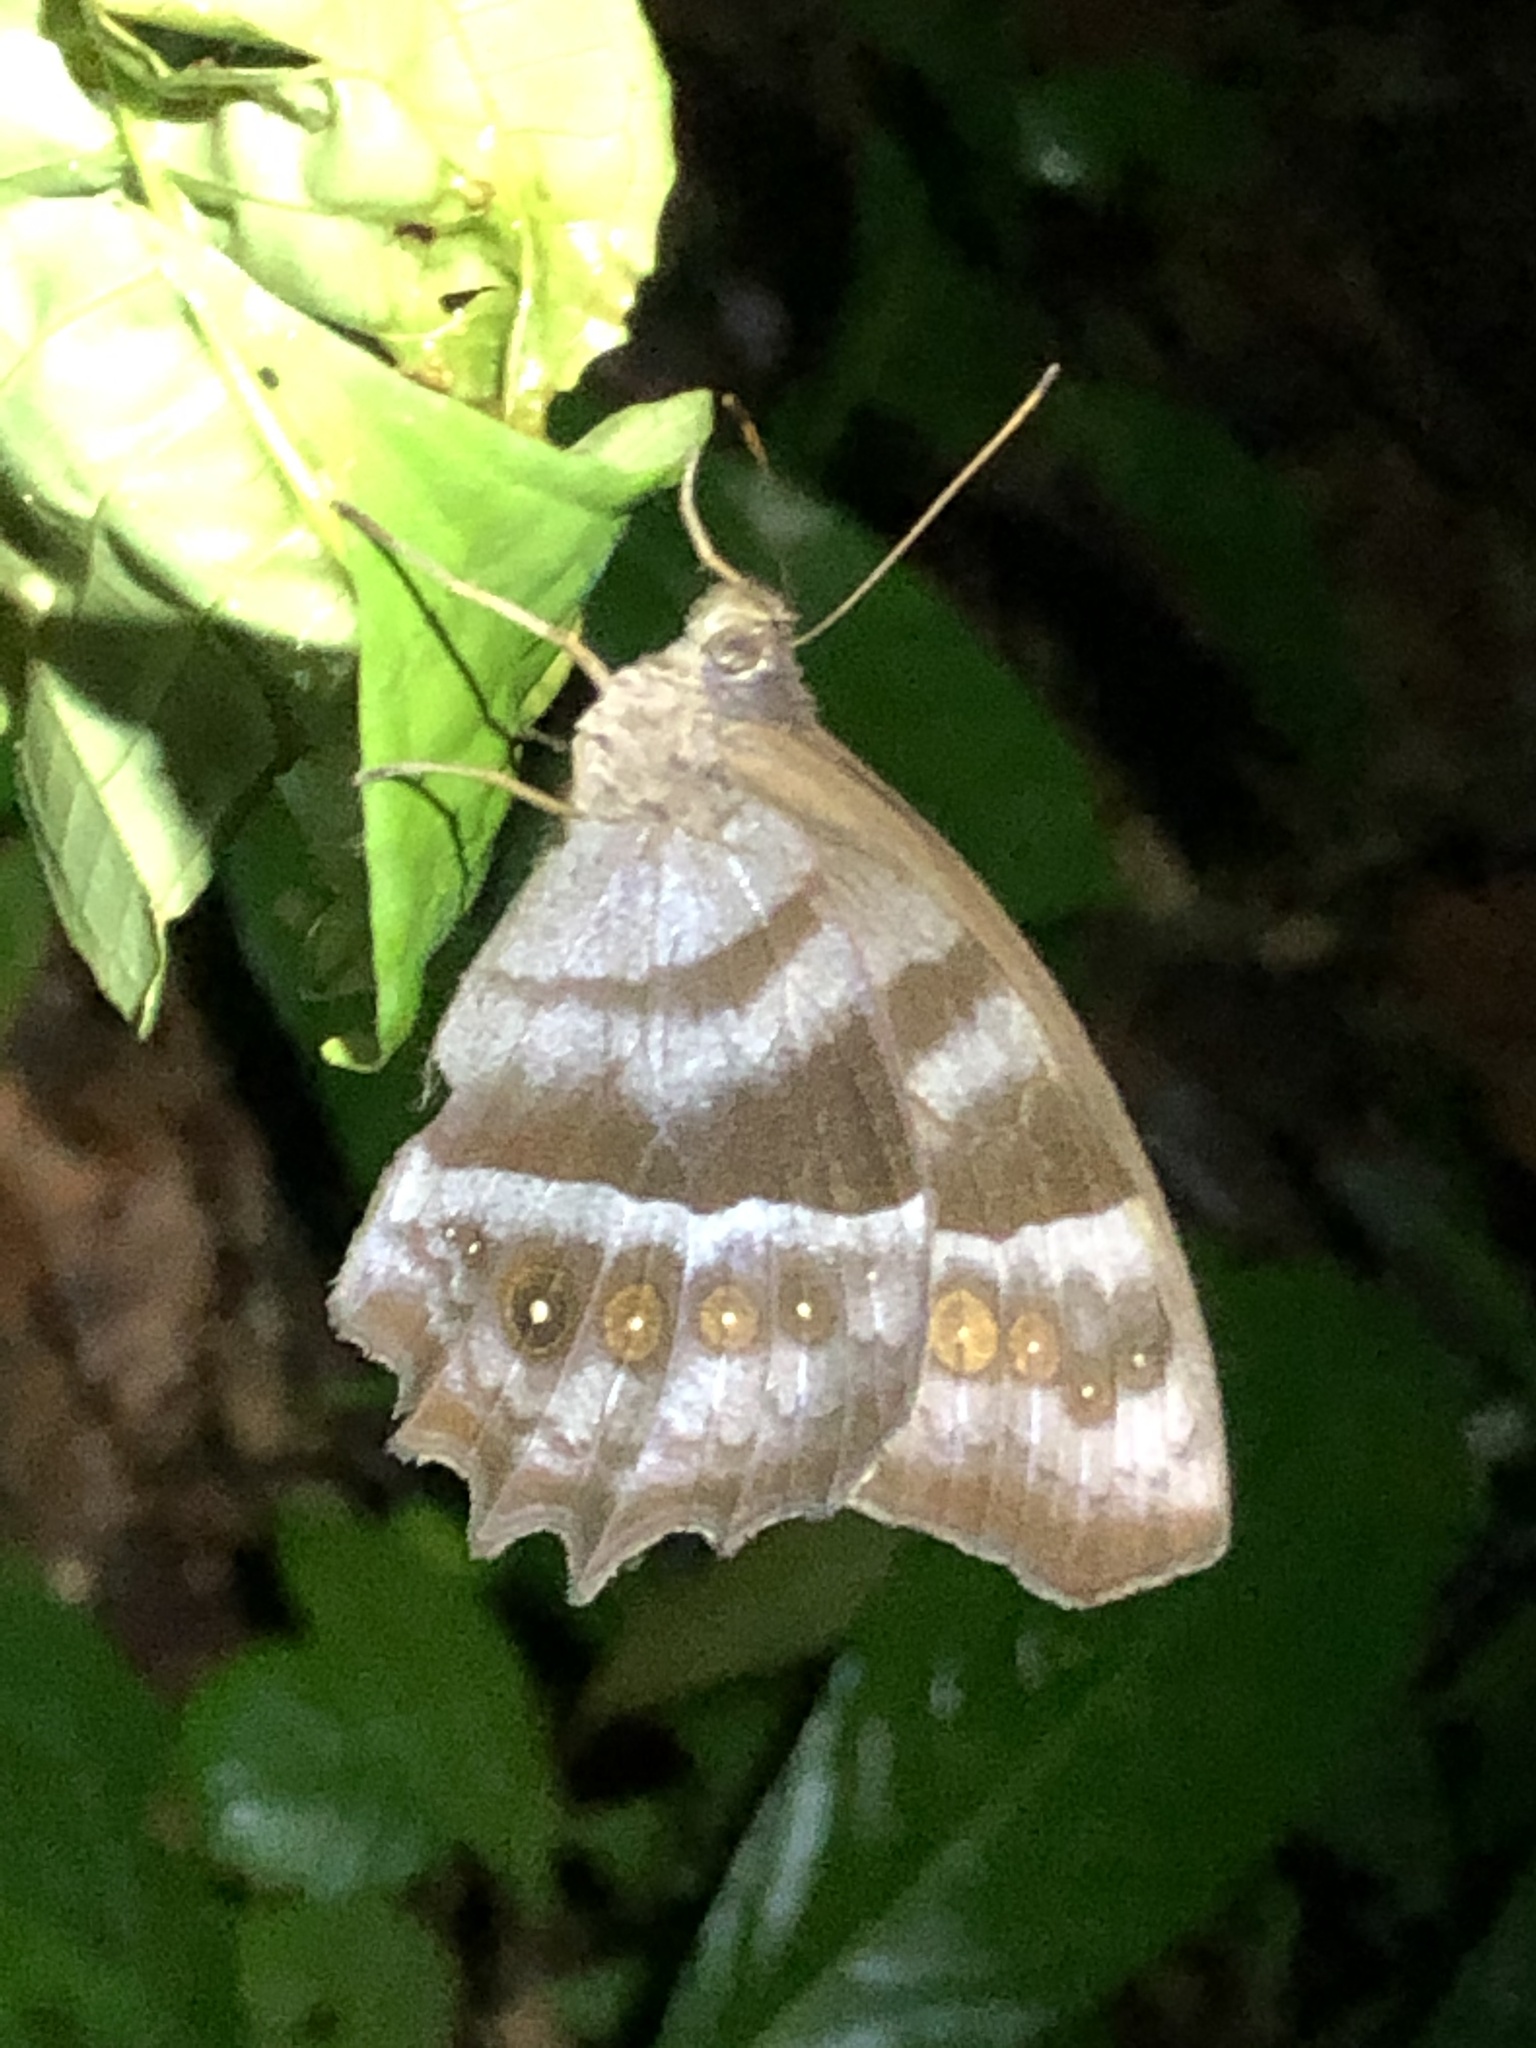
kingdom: Animalia
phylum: Arthropoda
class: Insecta
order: Lepidoptera
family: Nymphalidae
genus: Taygetis
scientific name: Taygetis thamyra
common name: Thamyra satyr
